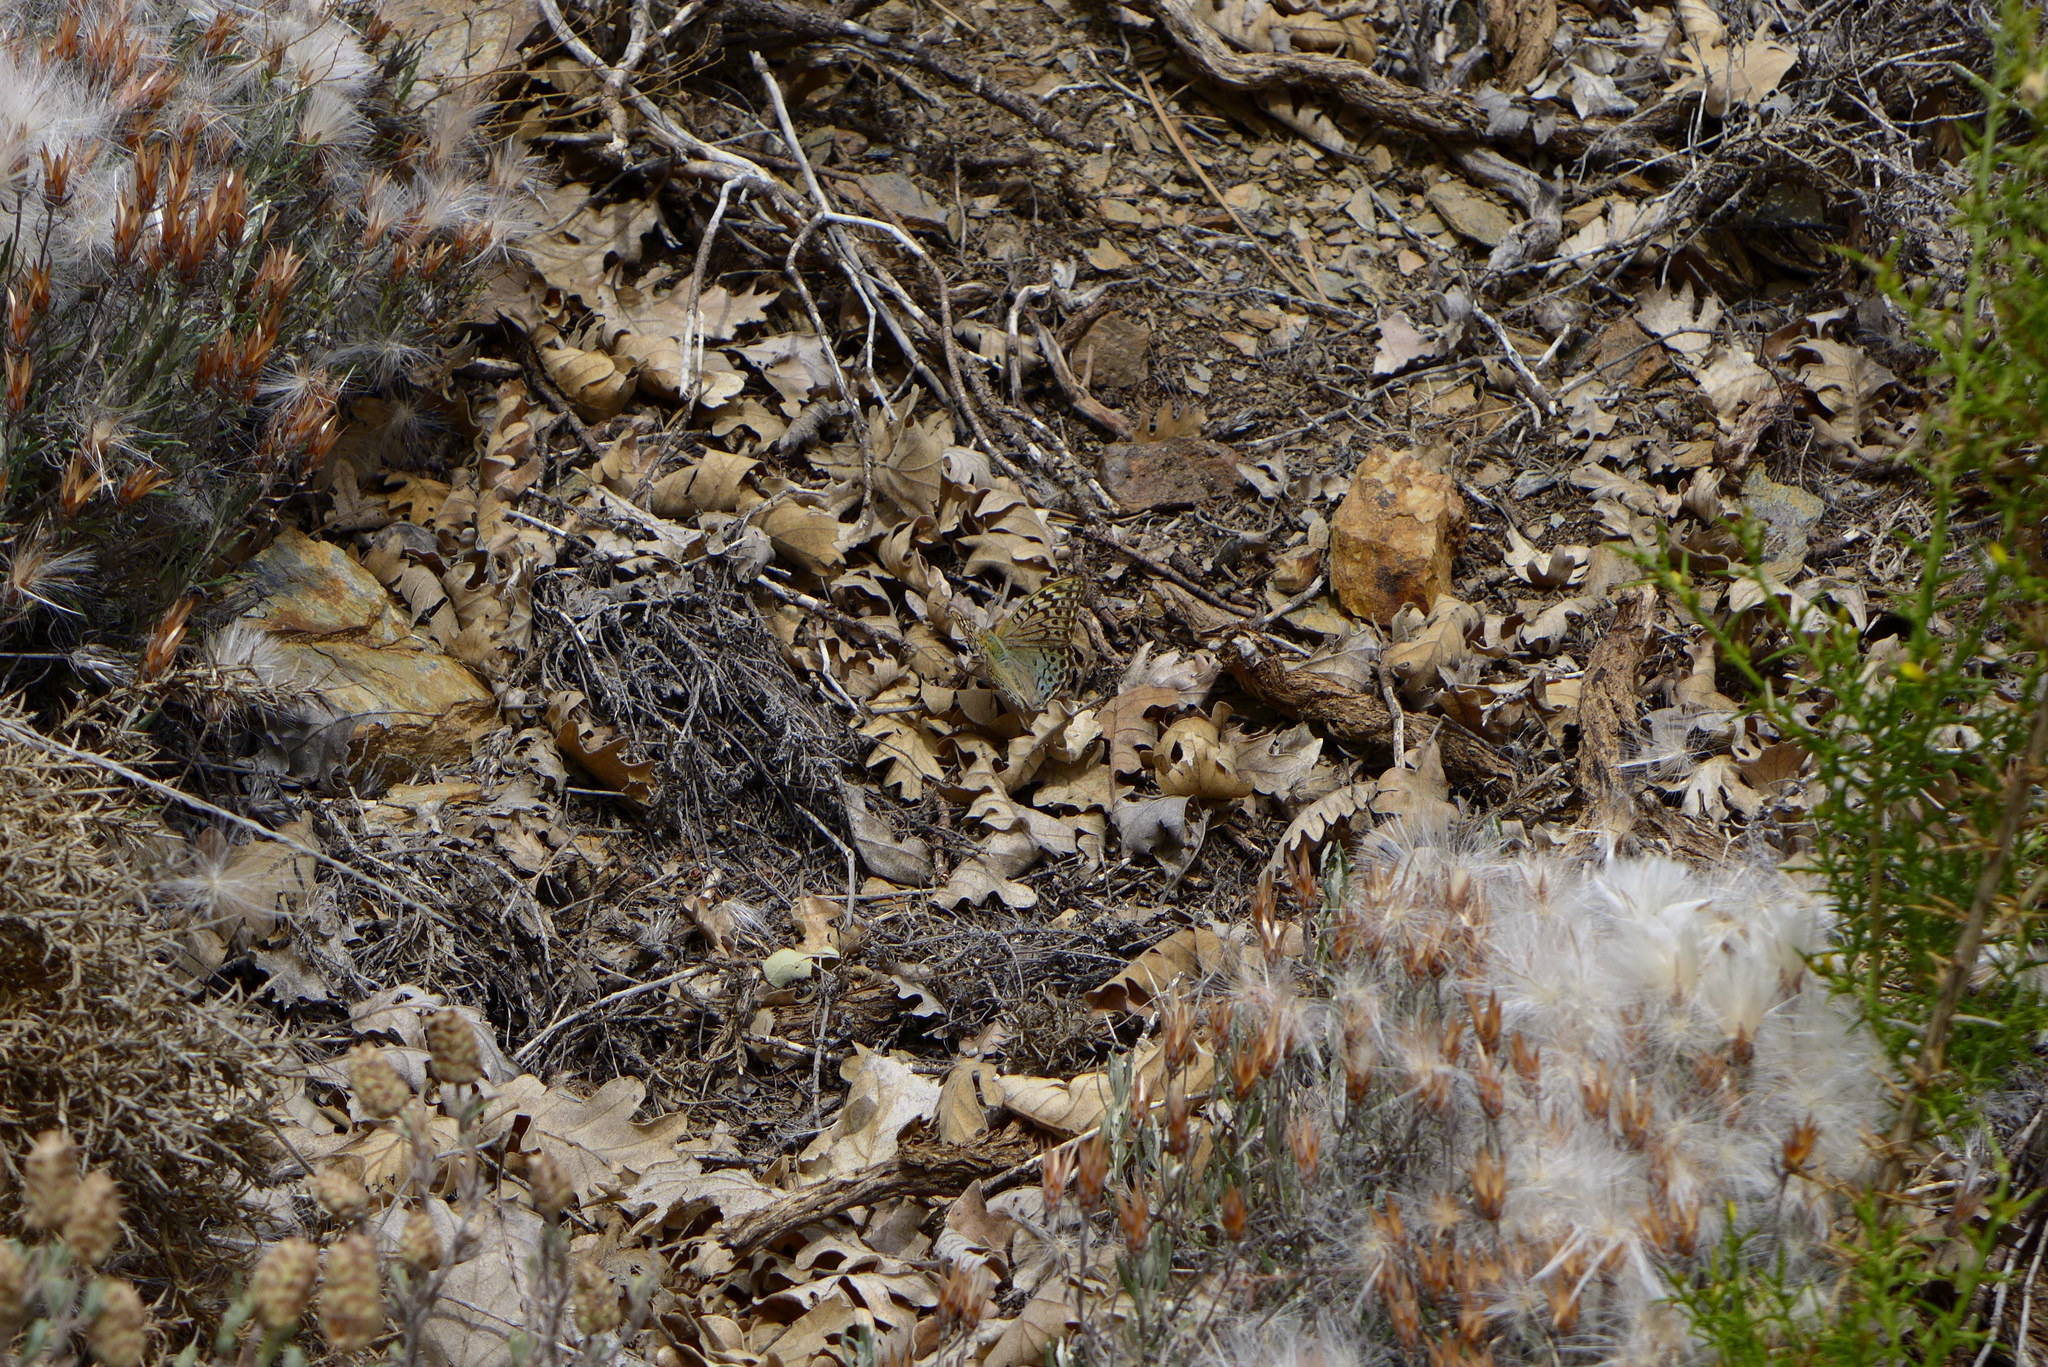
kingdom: Animalia
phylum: Arthropoda
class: Insecta
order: Lepidoptera
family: Nymphalidae
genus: Damora
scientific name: Damora pandora
